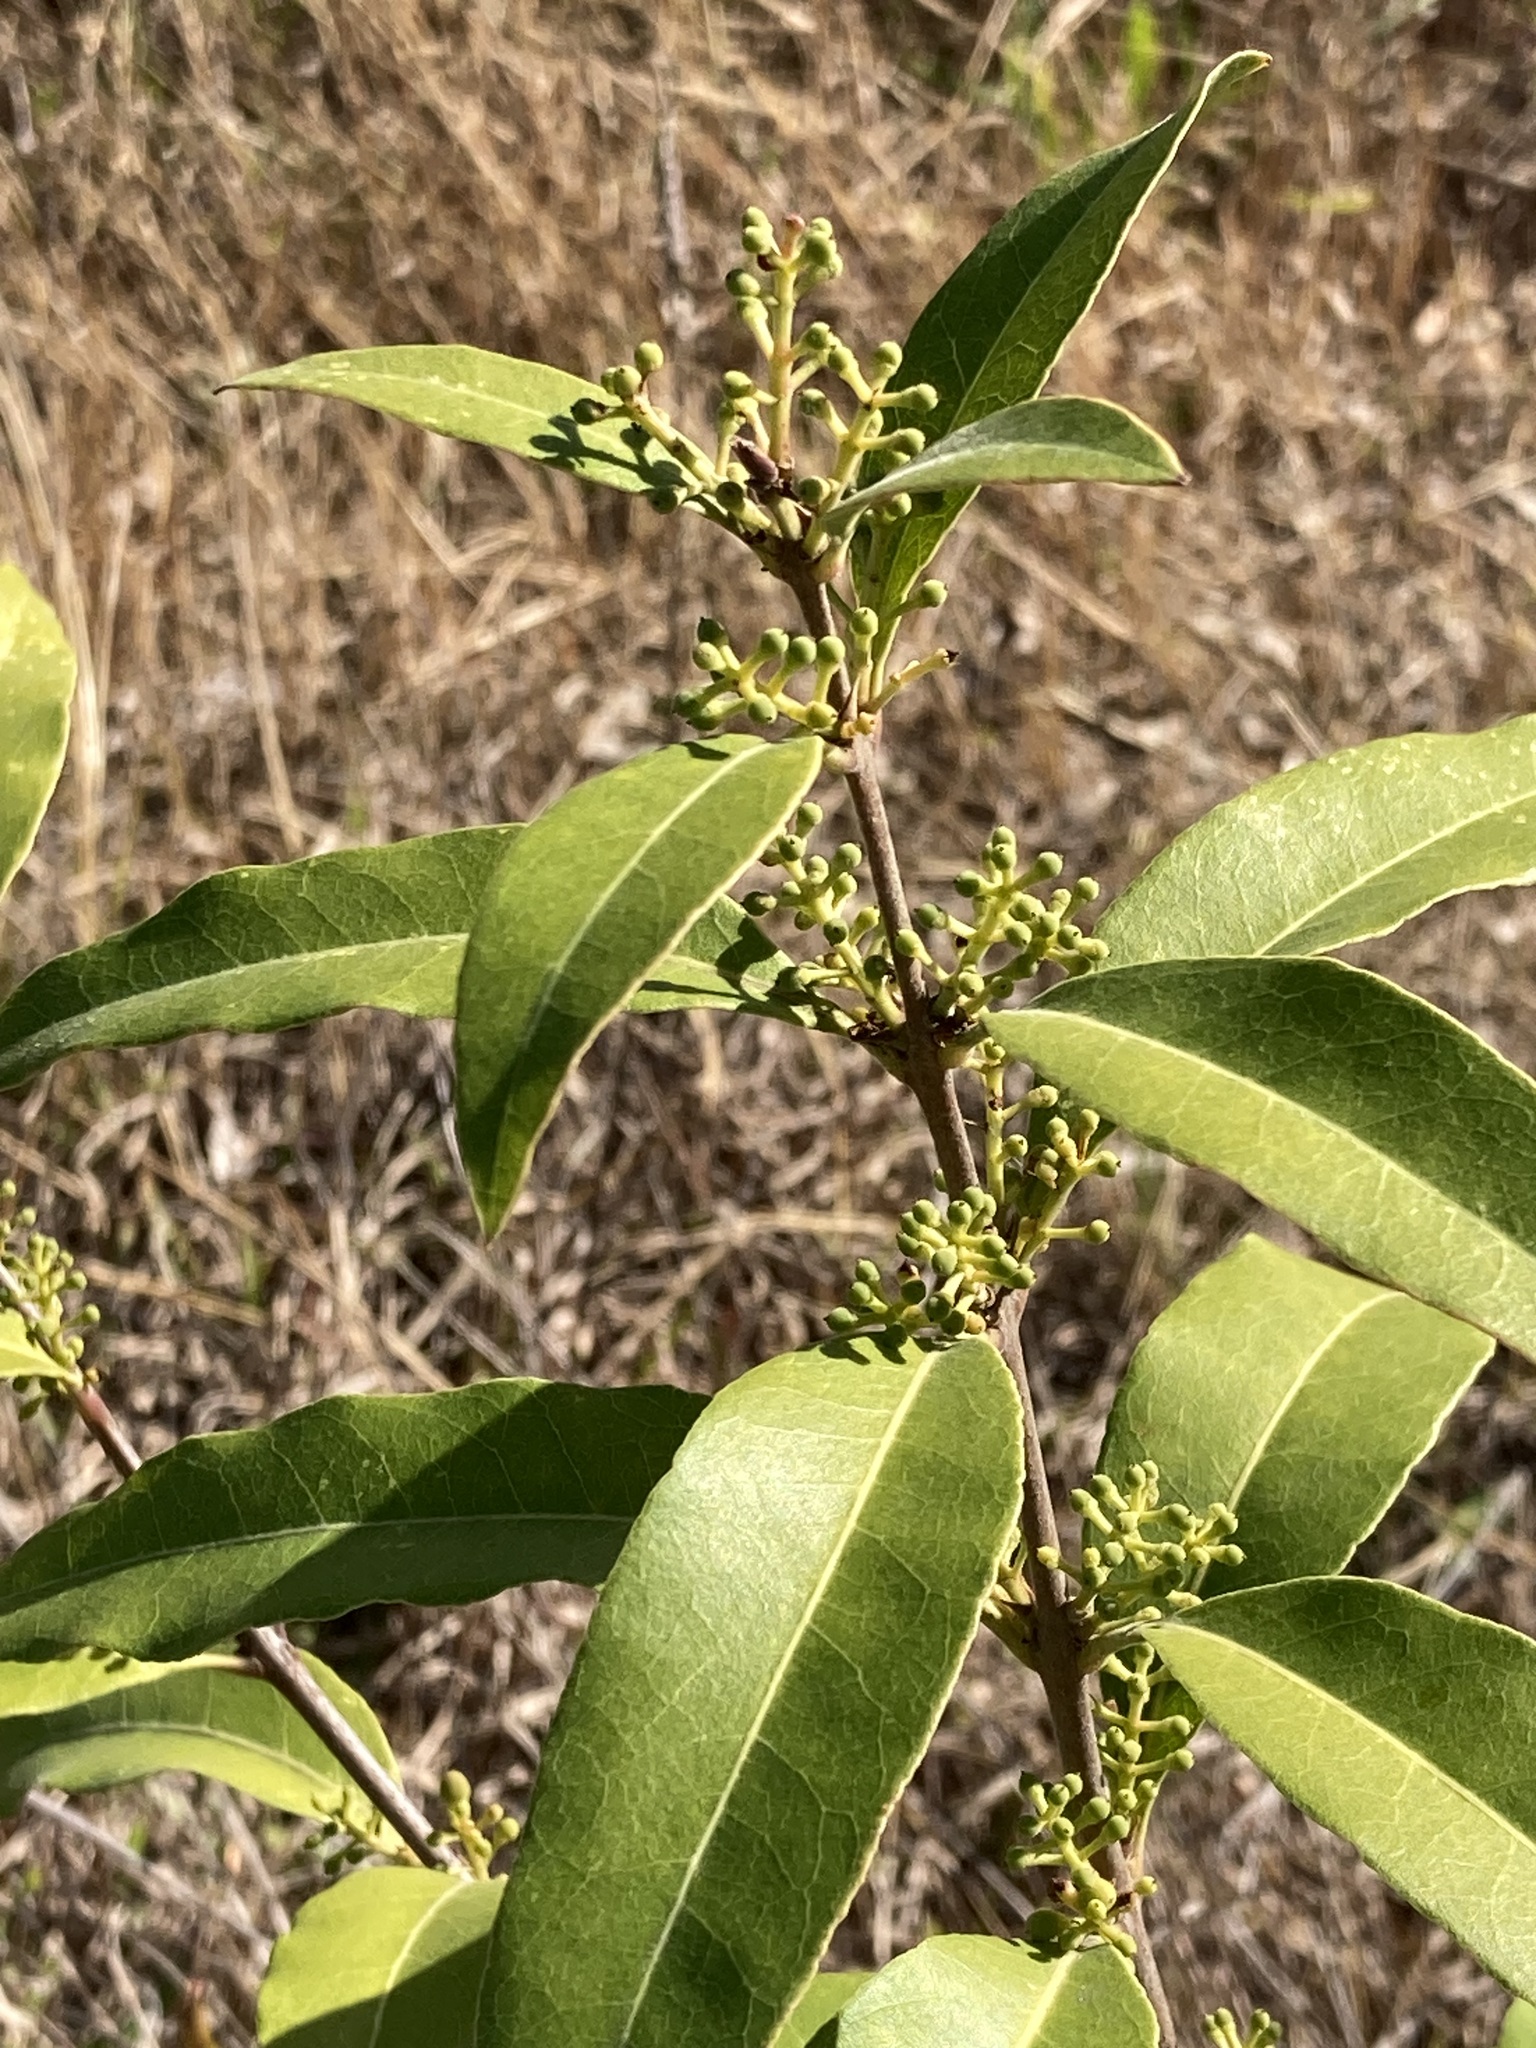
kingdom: Plantae
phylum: Tracheophyta
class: Magnoliopsida
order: Lamiales
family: Oleaceae
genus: Notelaea
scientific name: Notelaea longifolia
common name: Large mock olive
